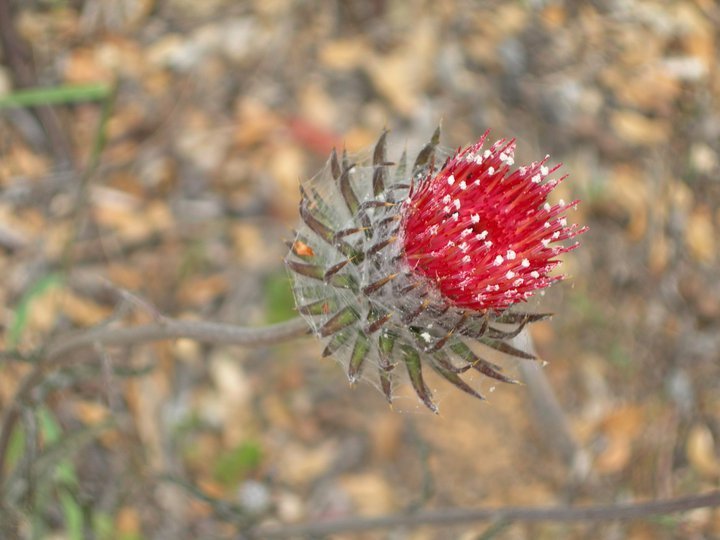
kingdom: Plantae
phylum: Tracheophyta
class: Magnoliopsida
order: Asterales
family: Asteraceae
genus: Cirsium
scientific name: Cirsium occidentale
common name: Western thistle
